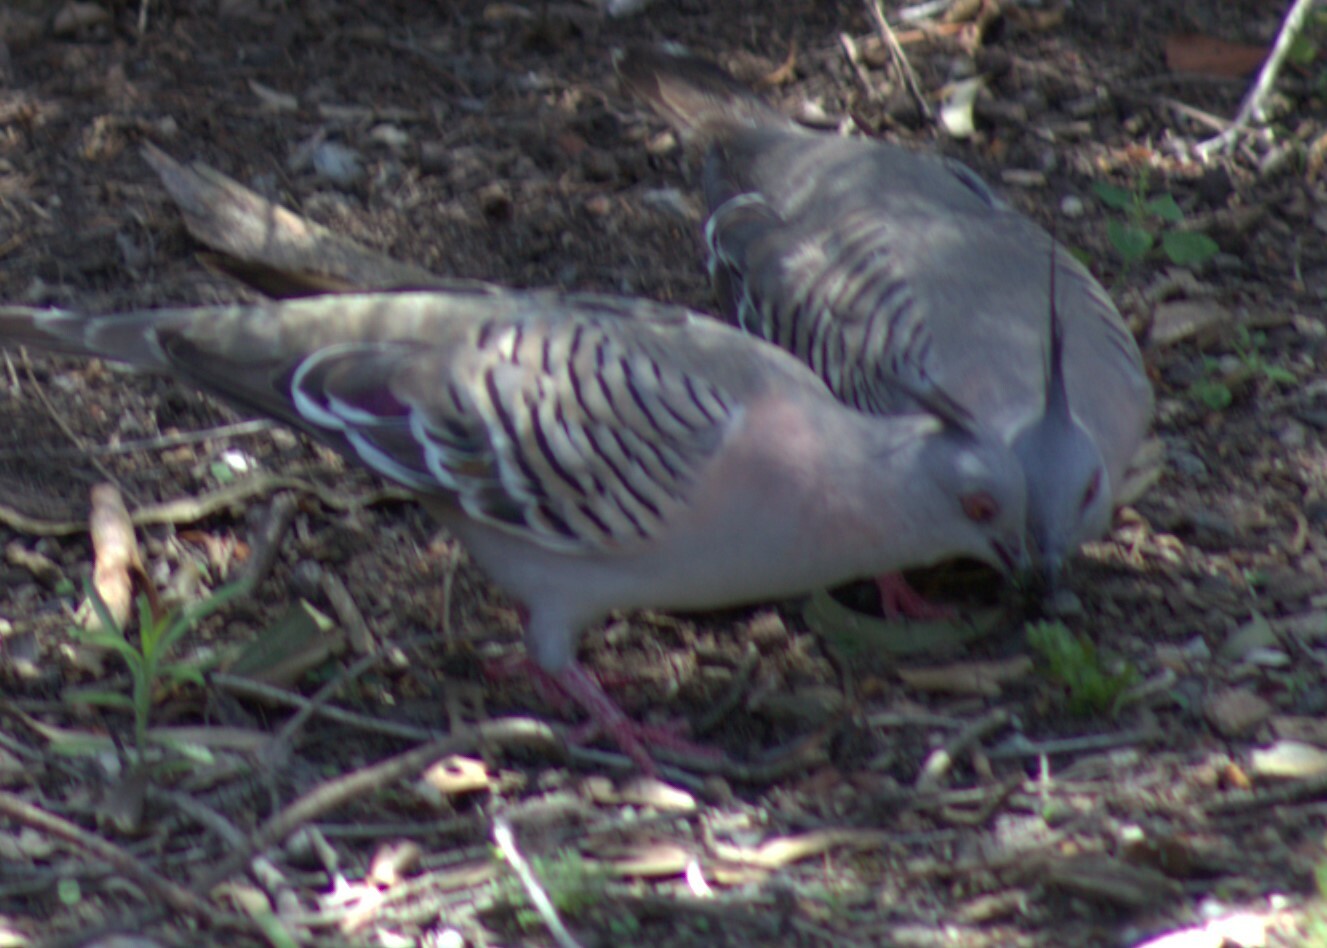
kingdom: Animalia
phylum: Chordata
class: Aves
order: Columbiformes
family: Columbidae
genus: Ocyphaps
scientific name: Ocyphaps lophotes
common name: Crested pigeon
